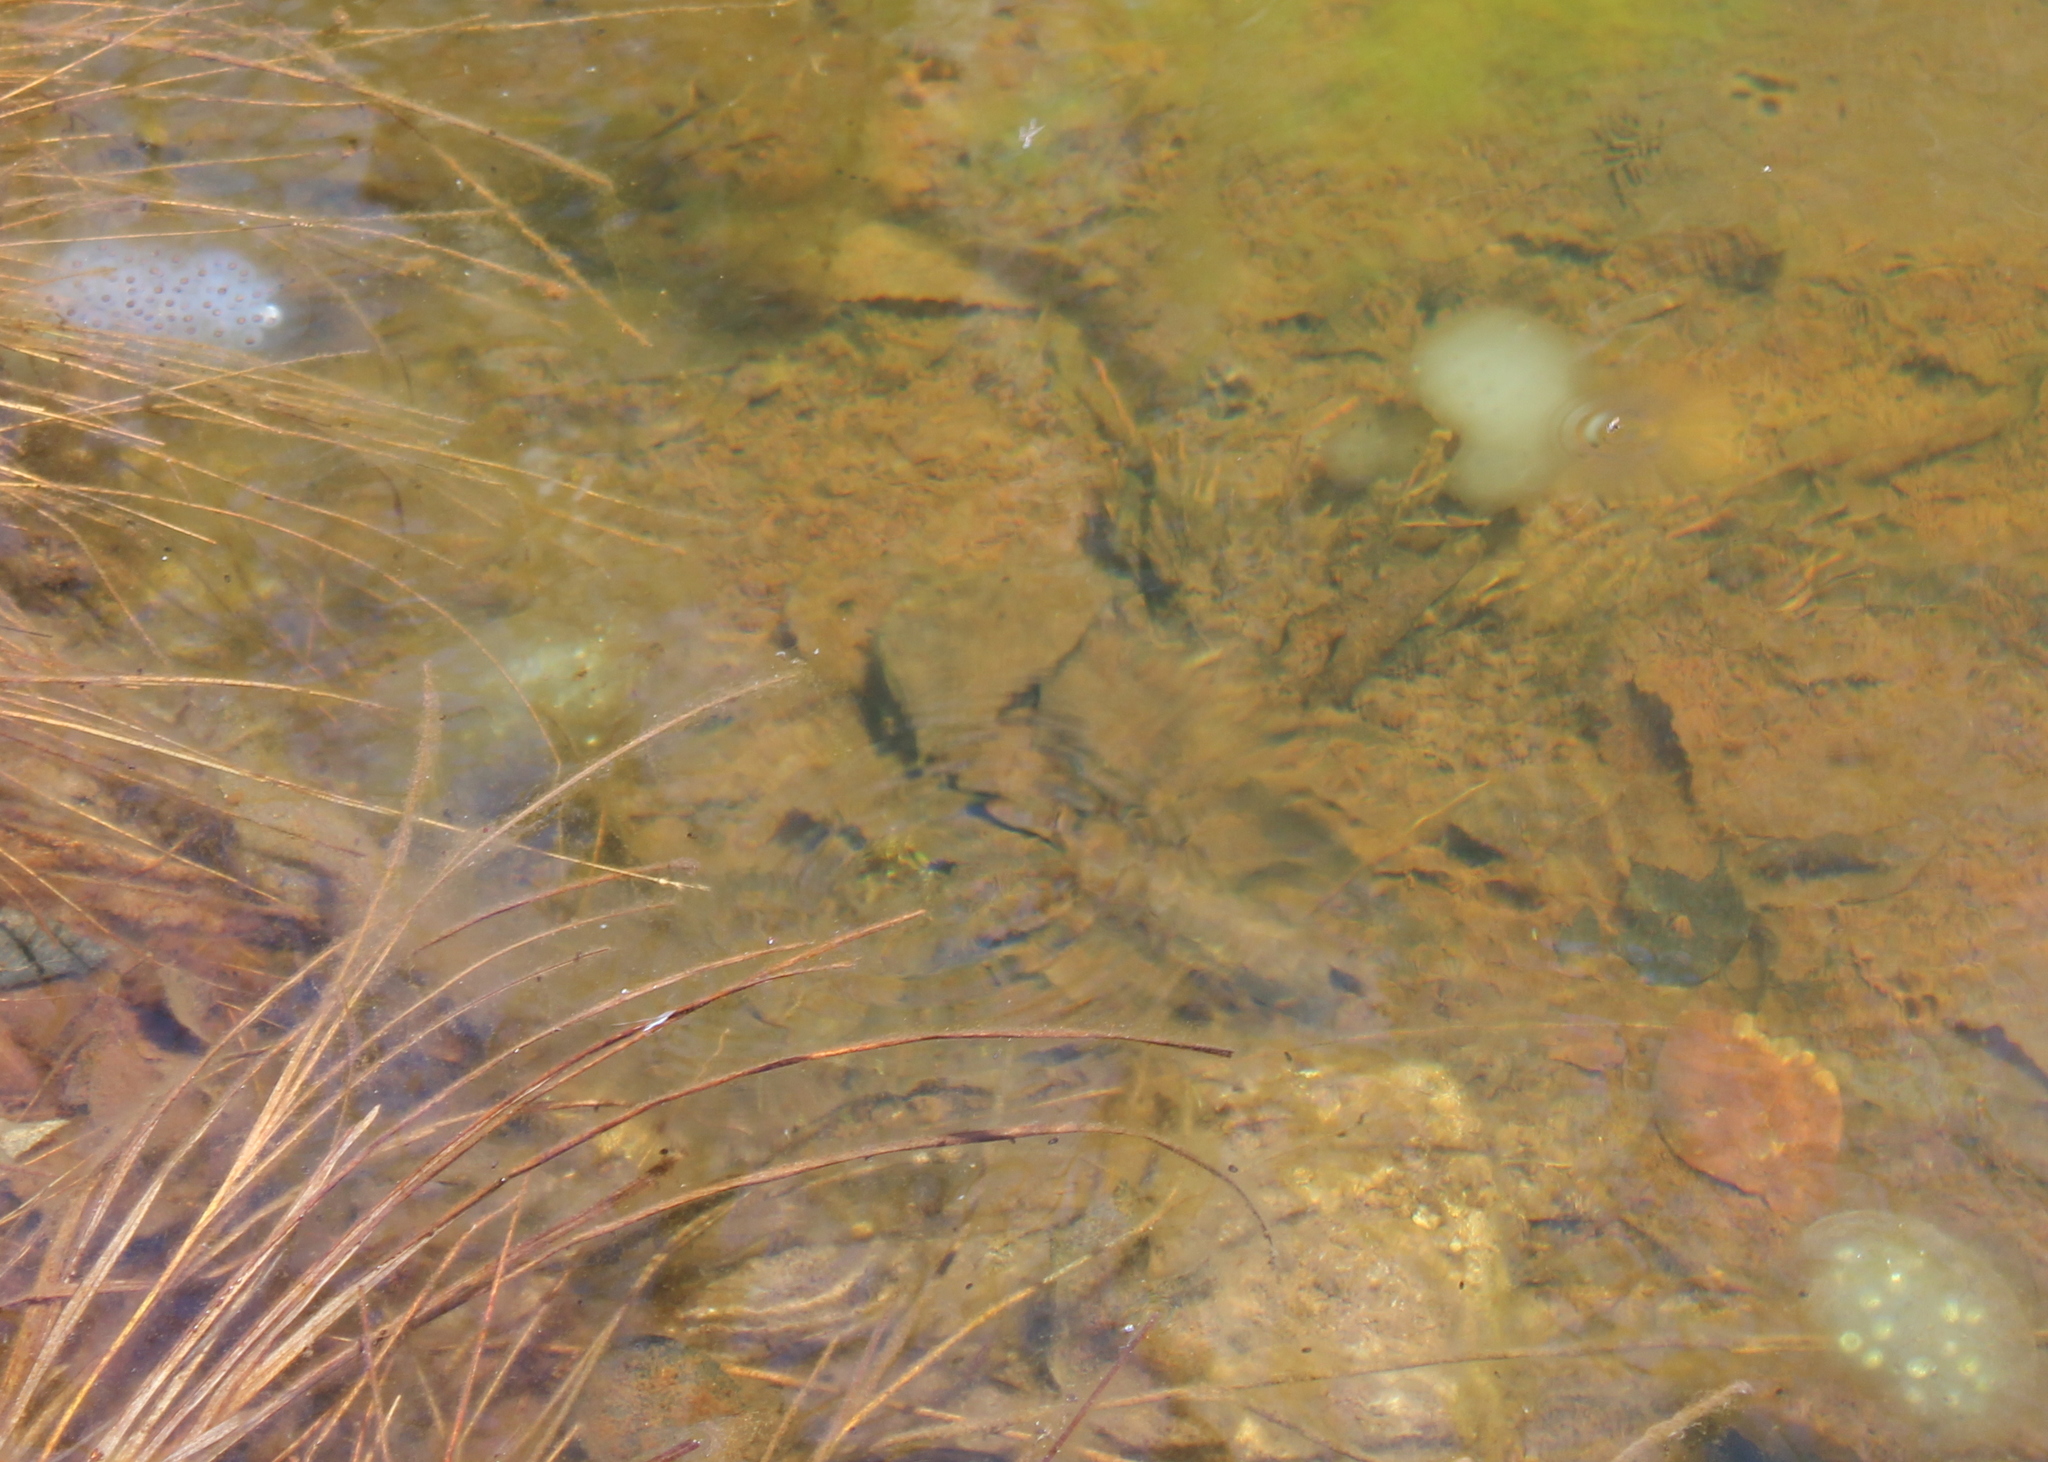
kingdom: Animalia
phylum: Chordata
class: Amphibia
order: Caudata
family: Ambystomatidae
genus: Ambystoma
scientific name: Ambystoma maculatum
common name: Spotted salamander
